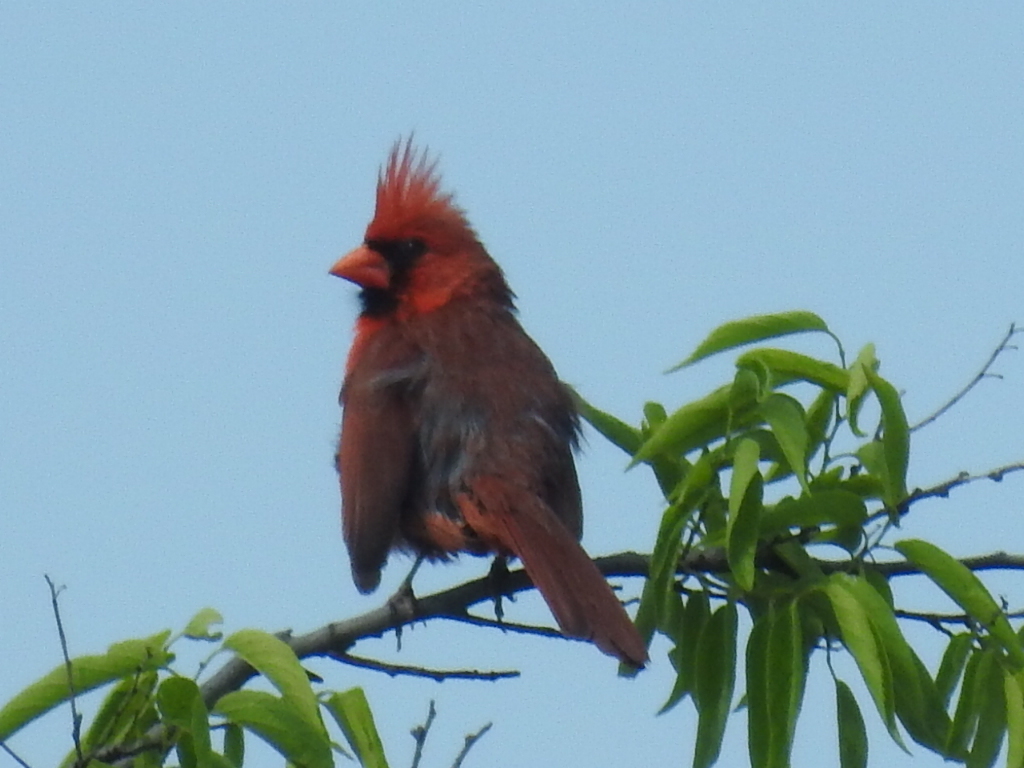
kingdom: Animalia
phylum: Chordata
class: Aves
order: Passeriformes
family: Cardinalidae
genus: Cardinalis
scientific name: Cardinalis cardinalis
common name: Northern cardinal
